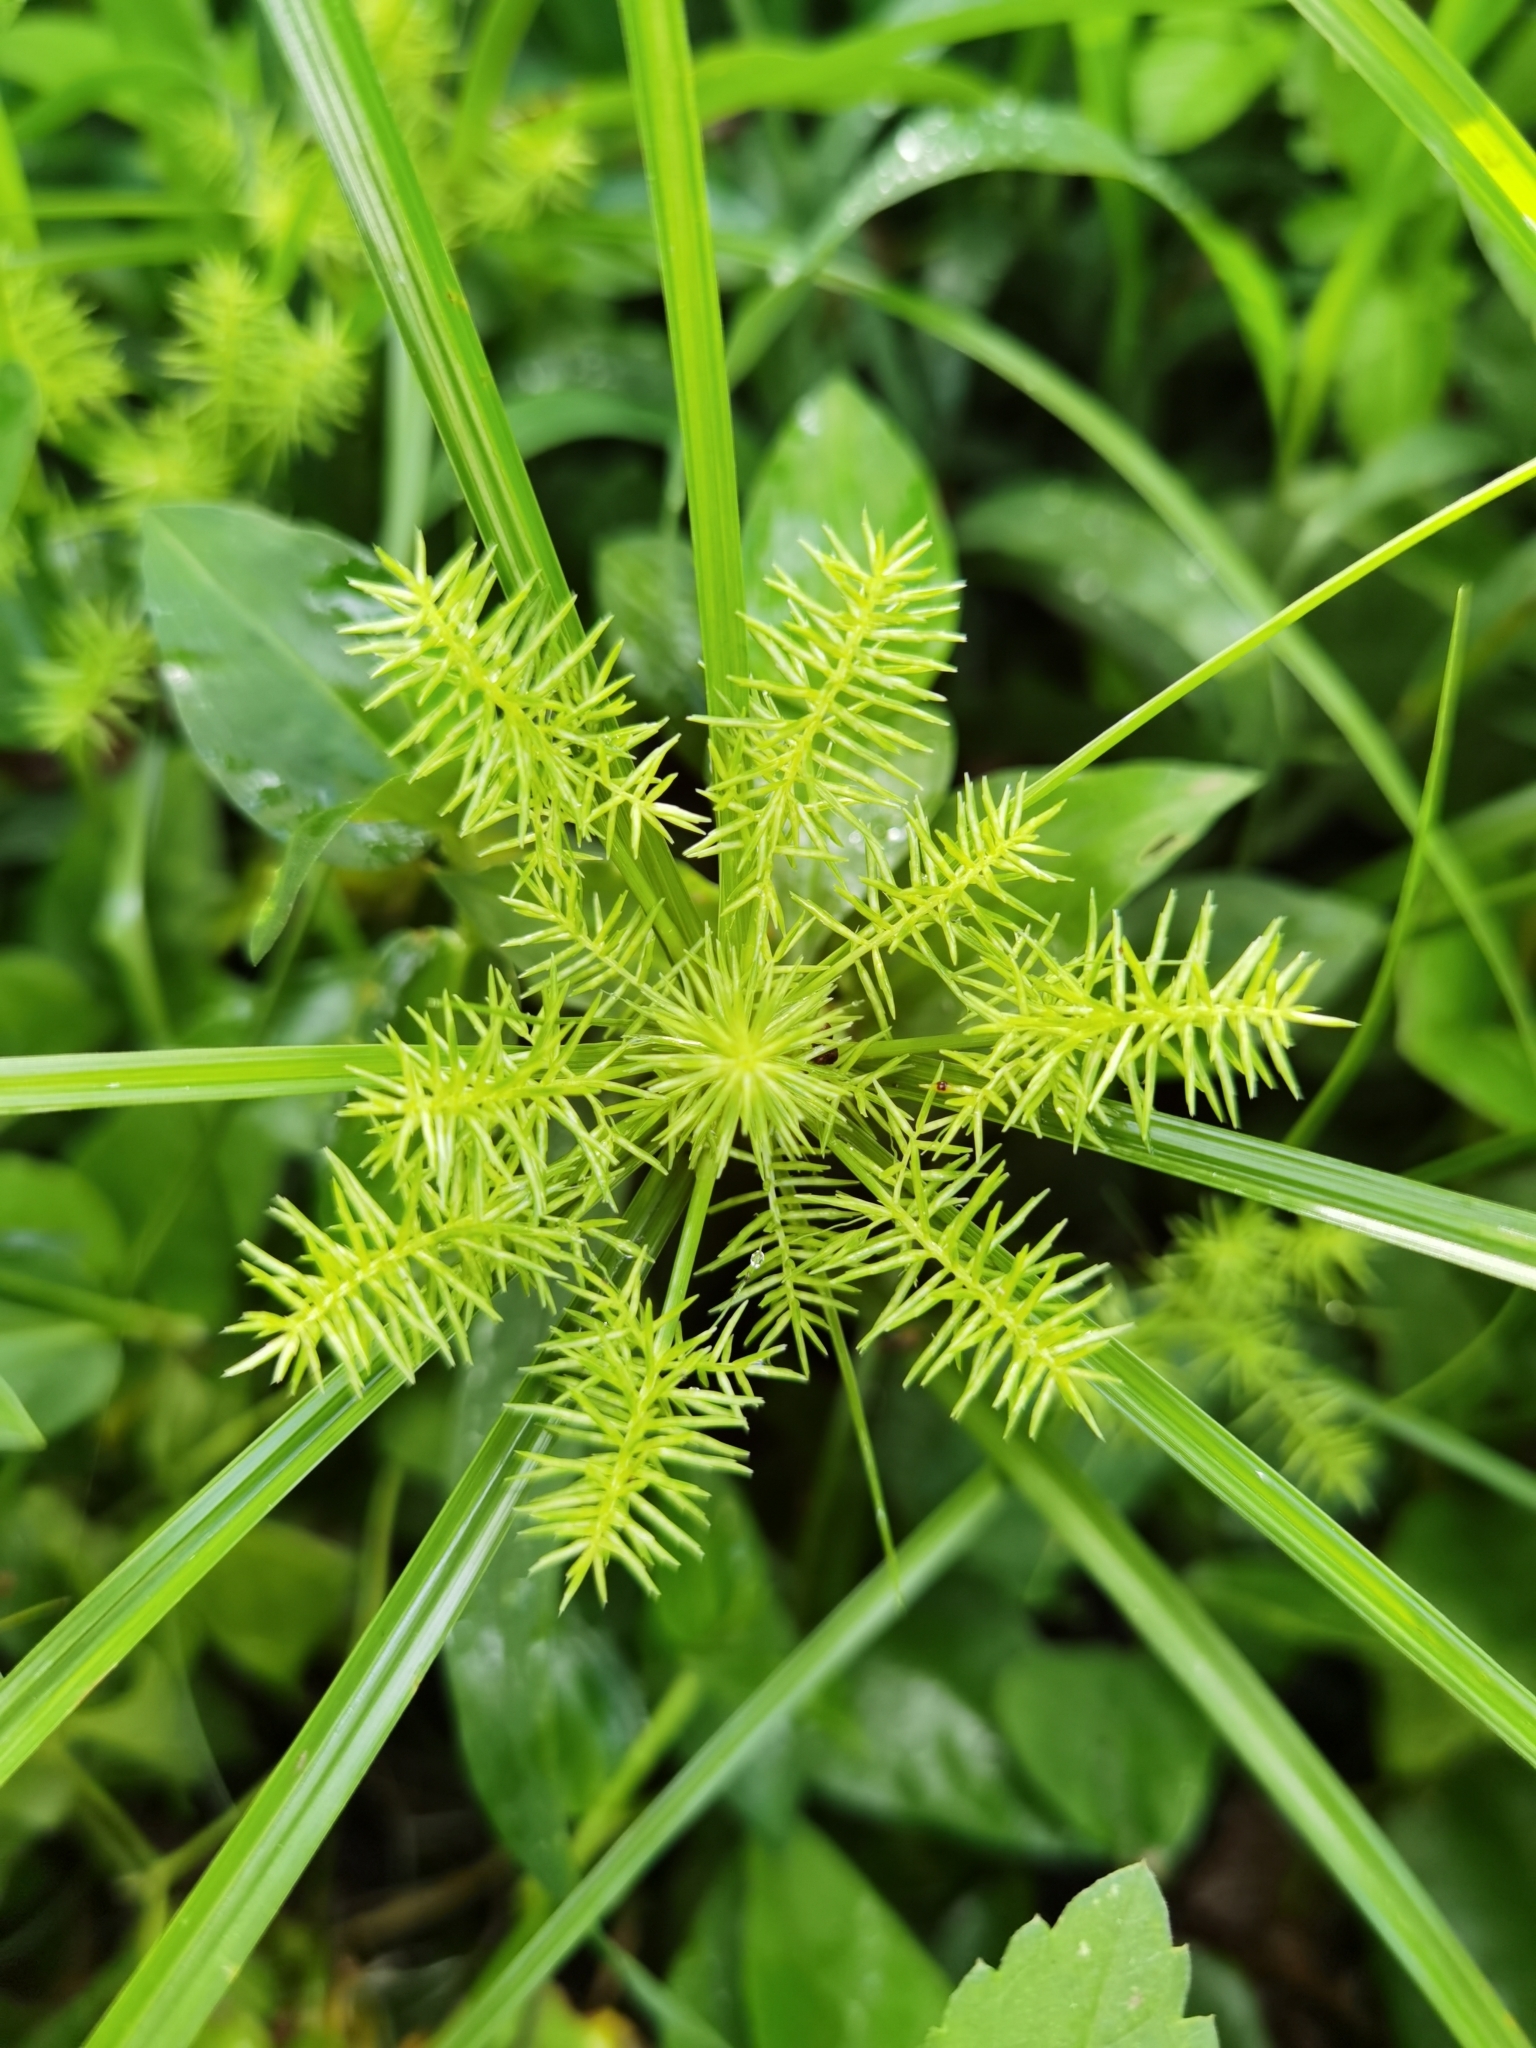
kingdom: Plantae
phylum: Tracheophyta
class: Liliopsida
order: Poales
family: Cyperaceae
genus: Cyperus
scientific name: Cyperus odoratus
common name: Fragrant flatsedge
